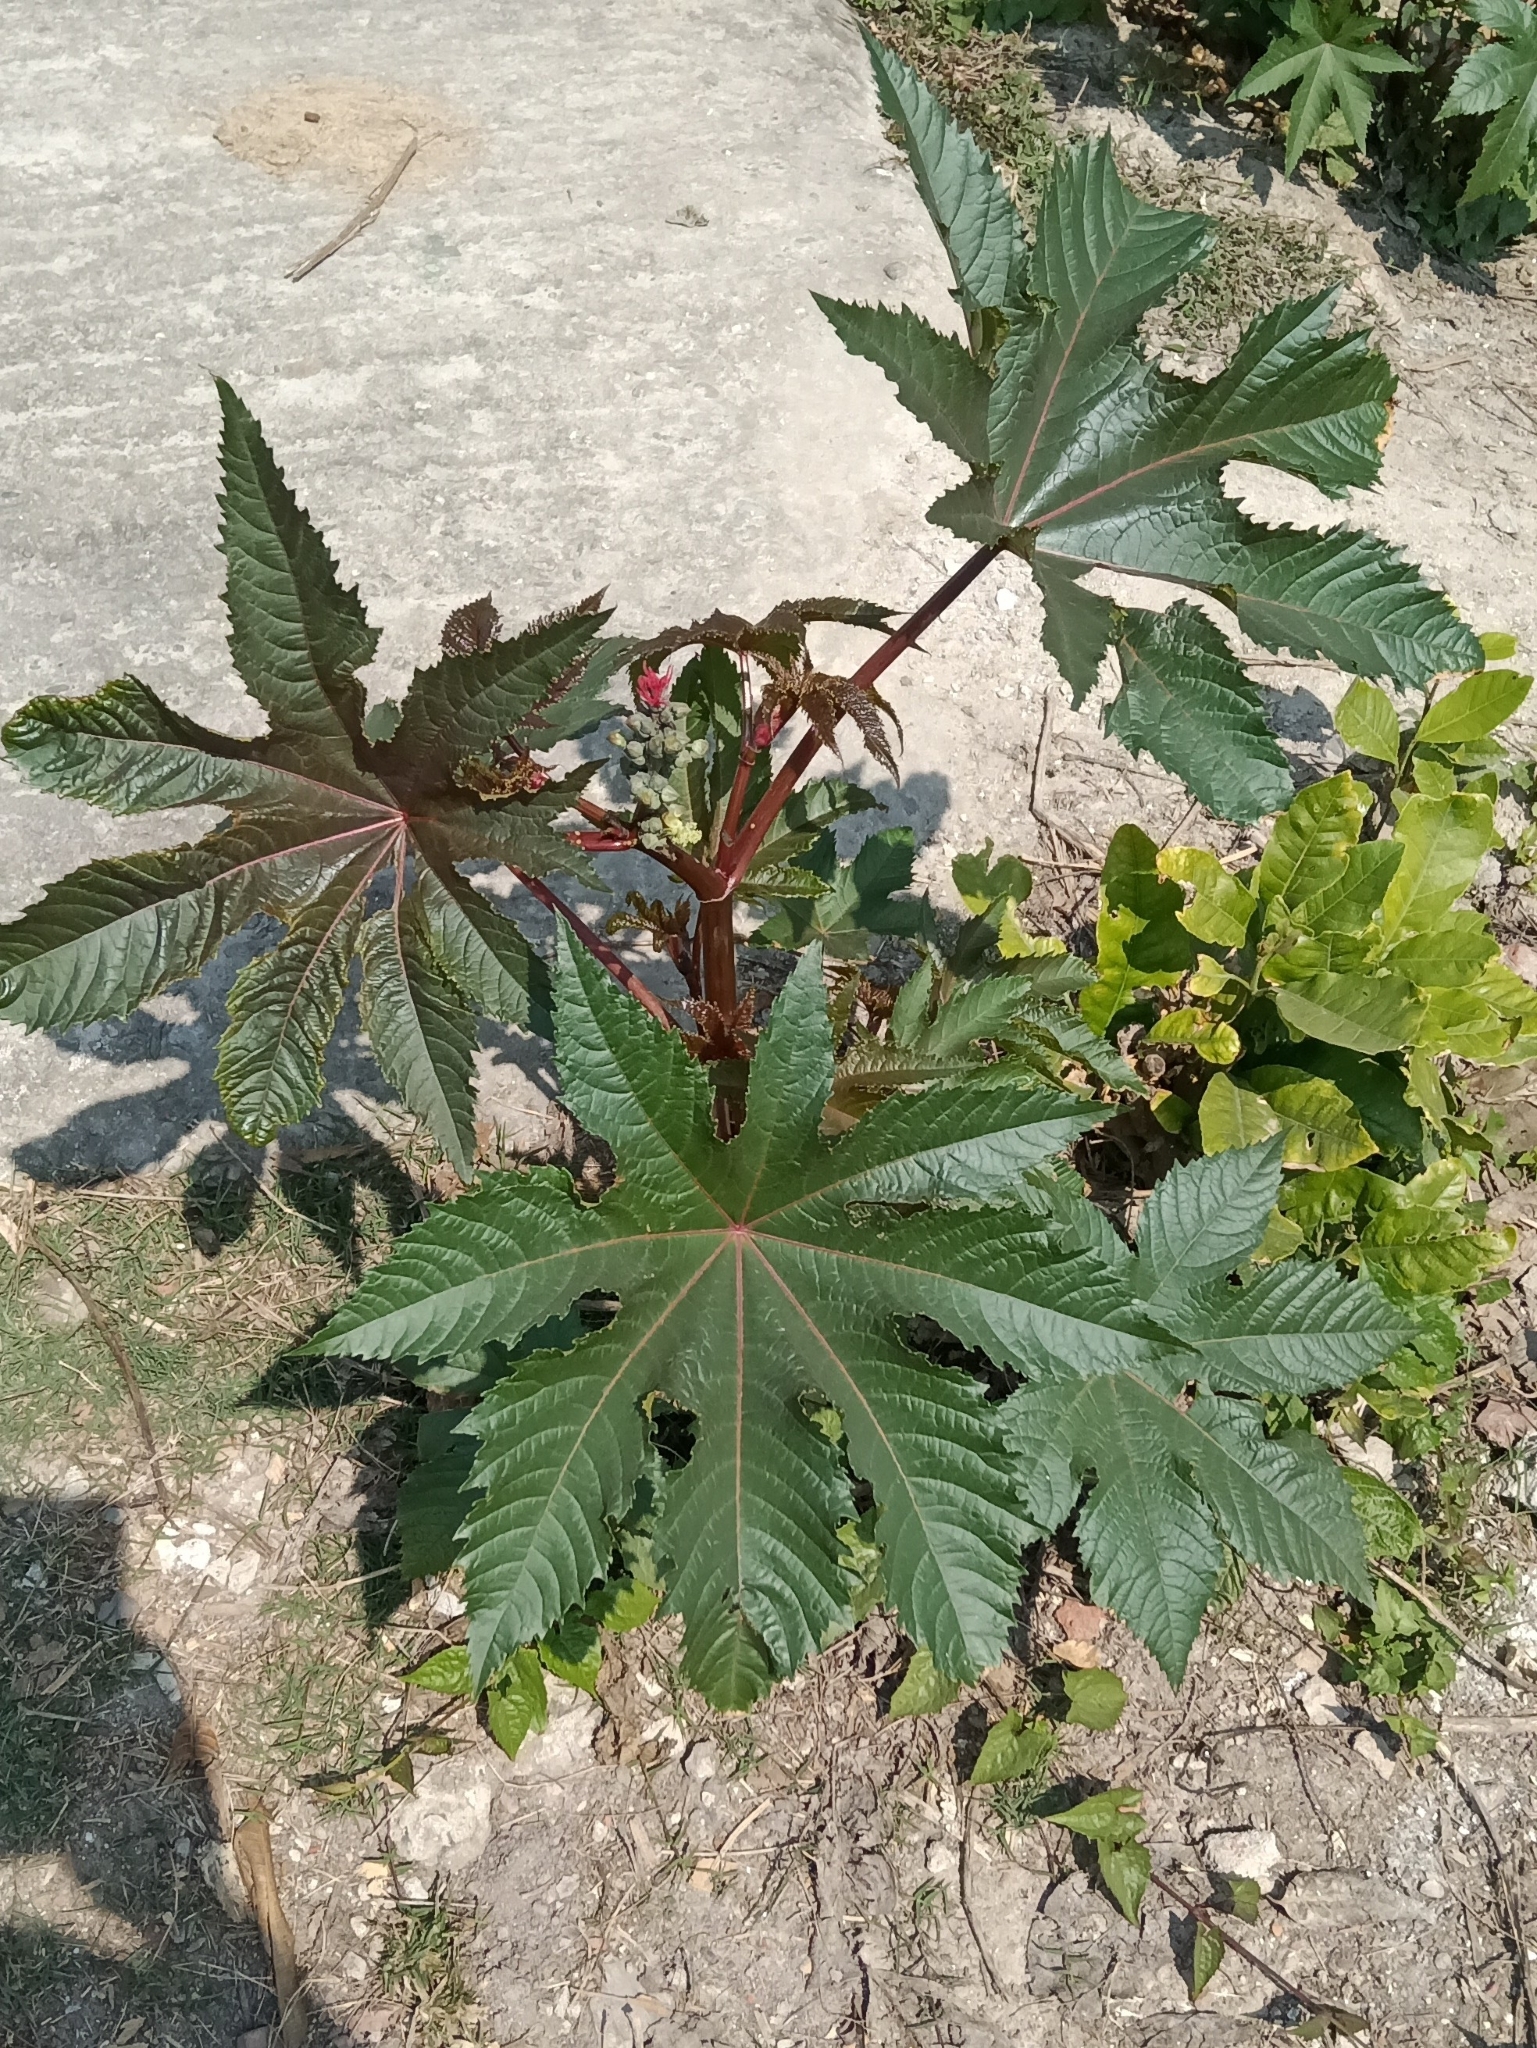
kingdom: Plantae
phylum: Tracheophyta
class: Magnoliopsida
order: Malpighiales
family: Euphorbiaceae
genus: Ricinus
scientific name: Ricinus communis
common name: Castor-oil-plant
